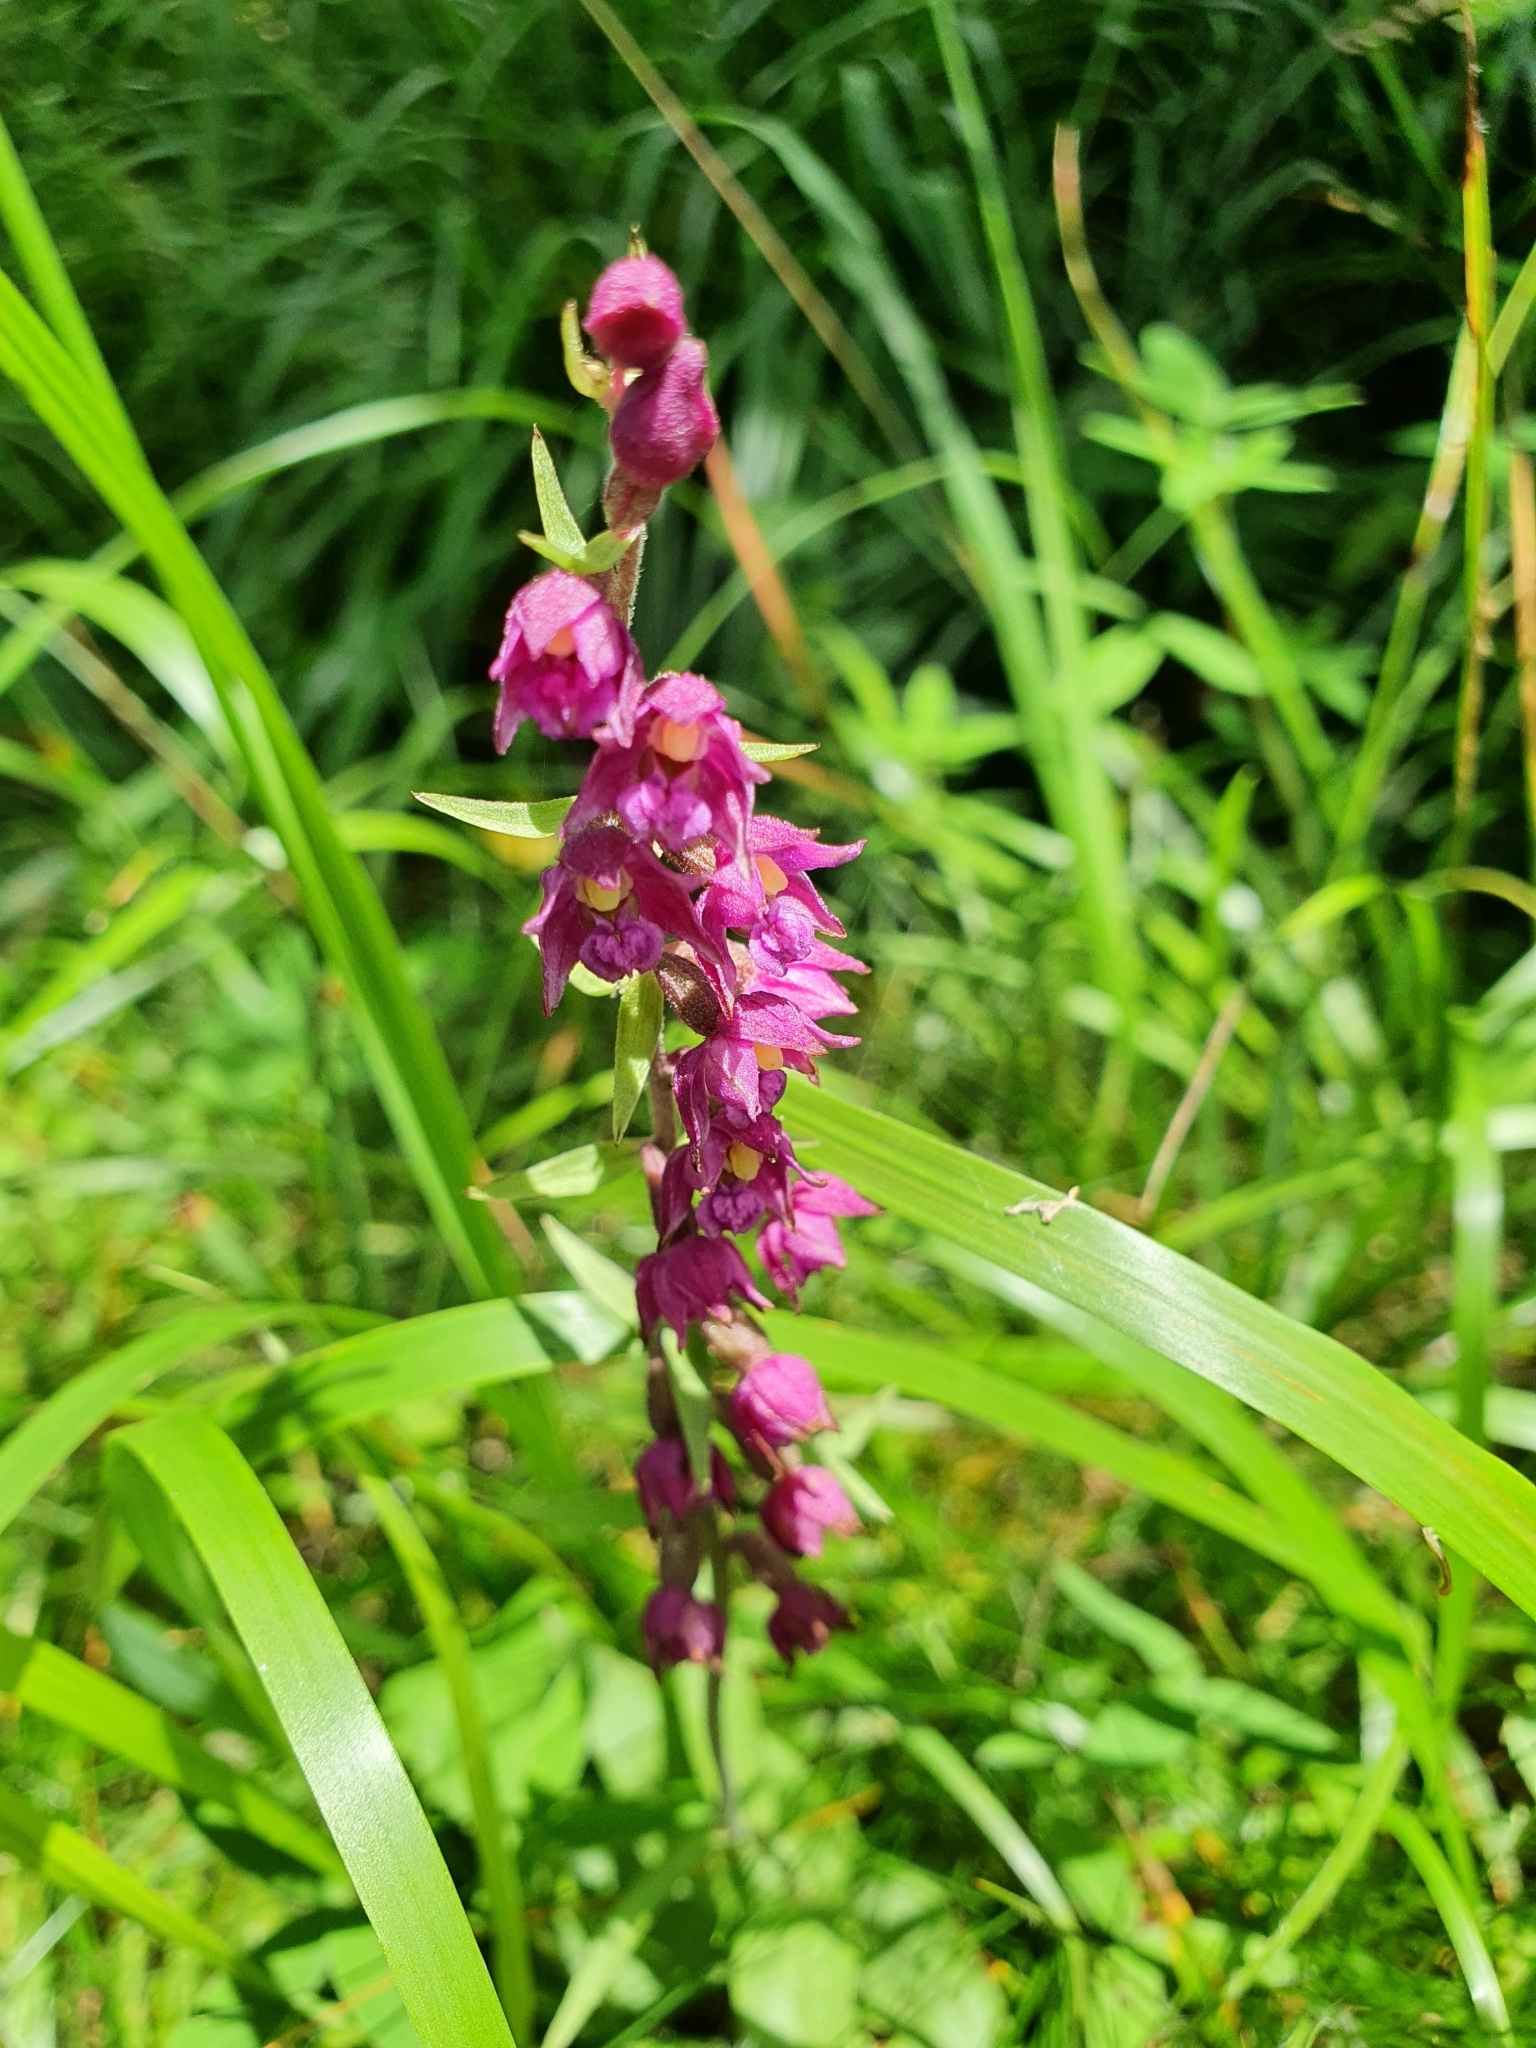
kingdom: Plantae
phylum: Tracheophyta
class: Liliopsida
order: Asparagales
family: Orchidaceae
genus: Epipactis
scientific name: Epipactis atrorubens
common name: Dark-red helleborine
